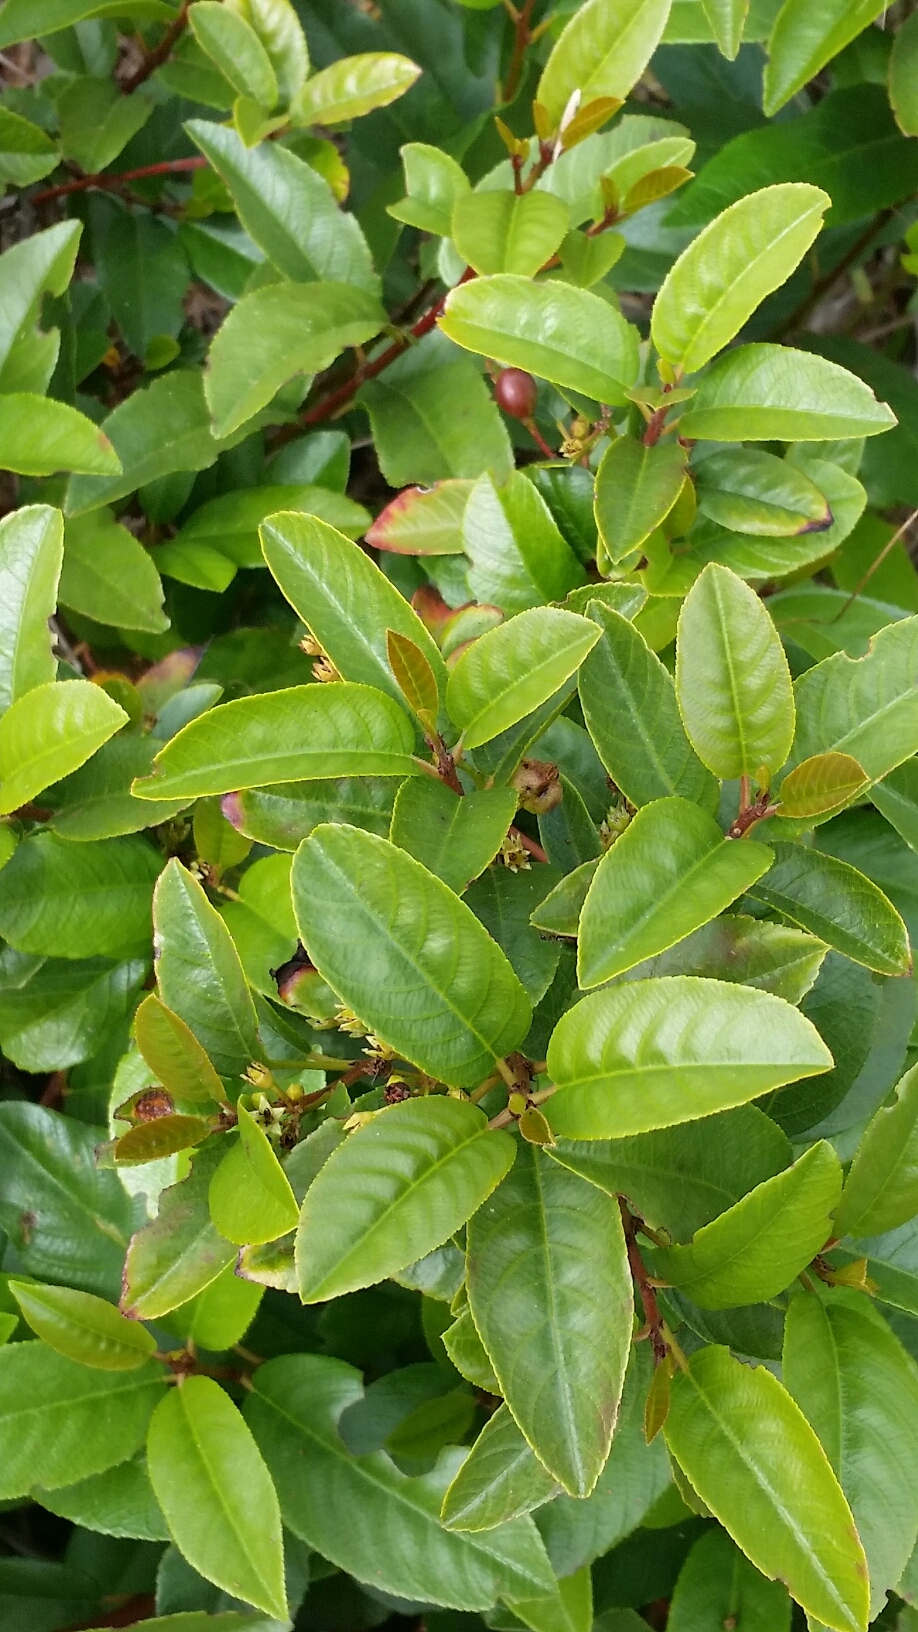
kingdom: Plantae
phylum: Tracheophyta
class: Magnoliopsida
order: Rosales
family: Rhamnaceae
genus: Frangula
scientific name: Frangula californica
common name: California buckthorn
